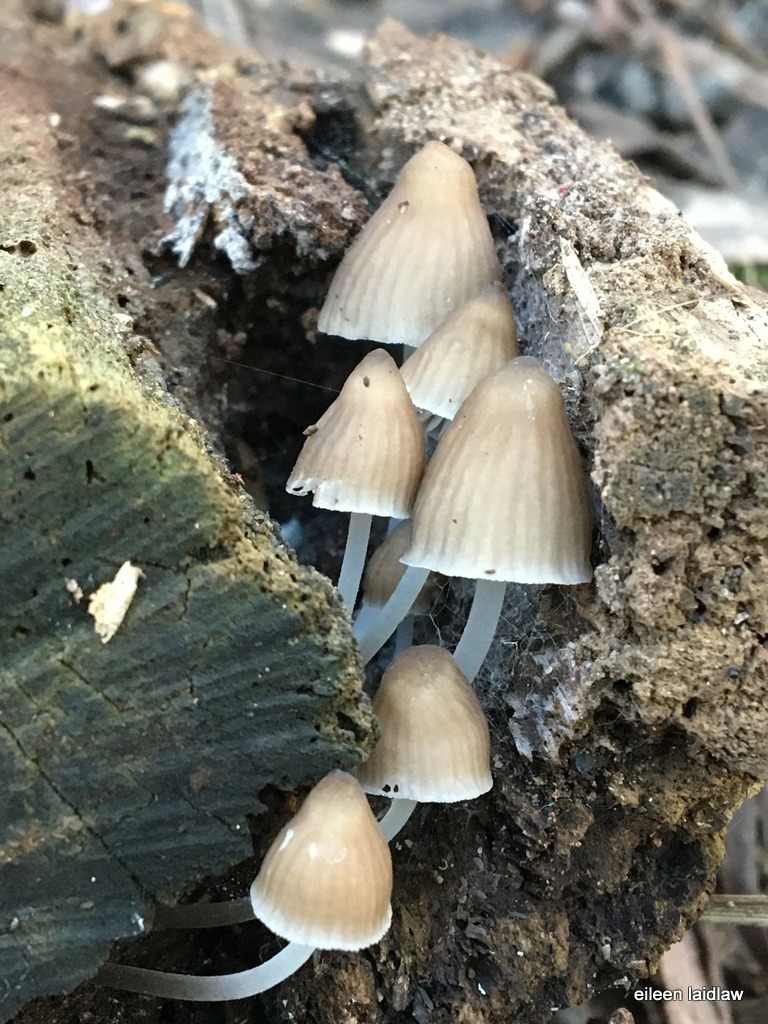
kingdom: Fungi
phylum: Basidiomycota
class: Agaricomycetes
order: Agaricales
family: Mycenaceae
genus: Mycena
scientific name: Mycena subgalericulata
